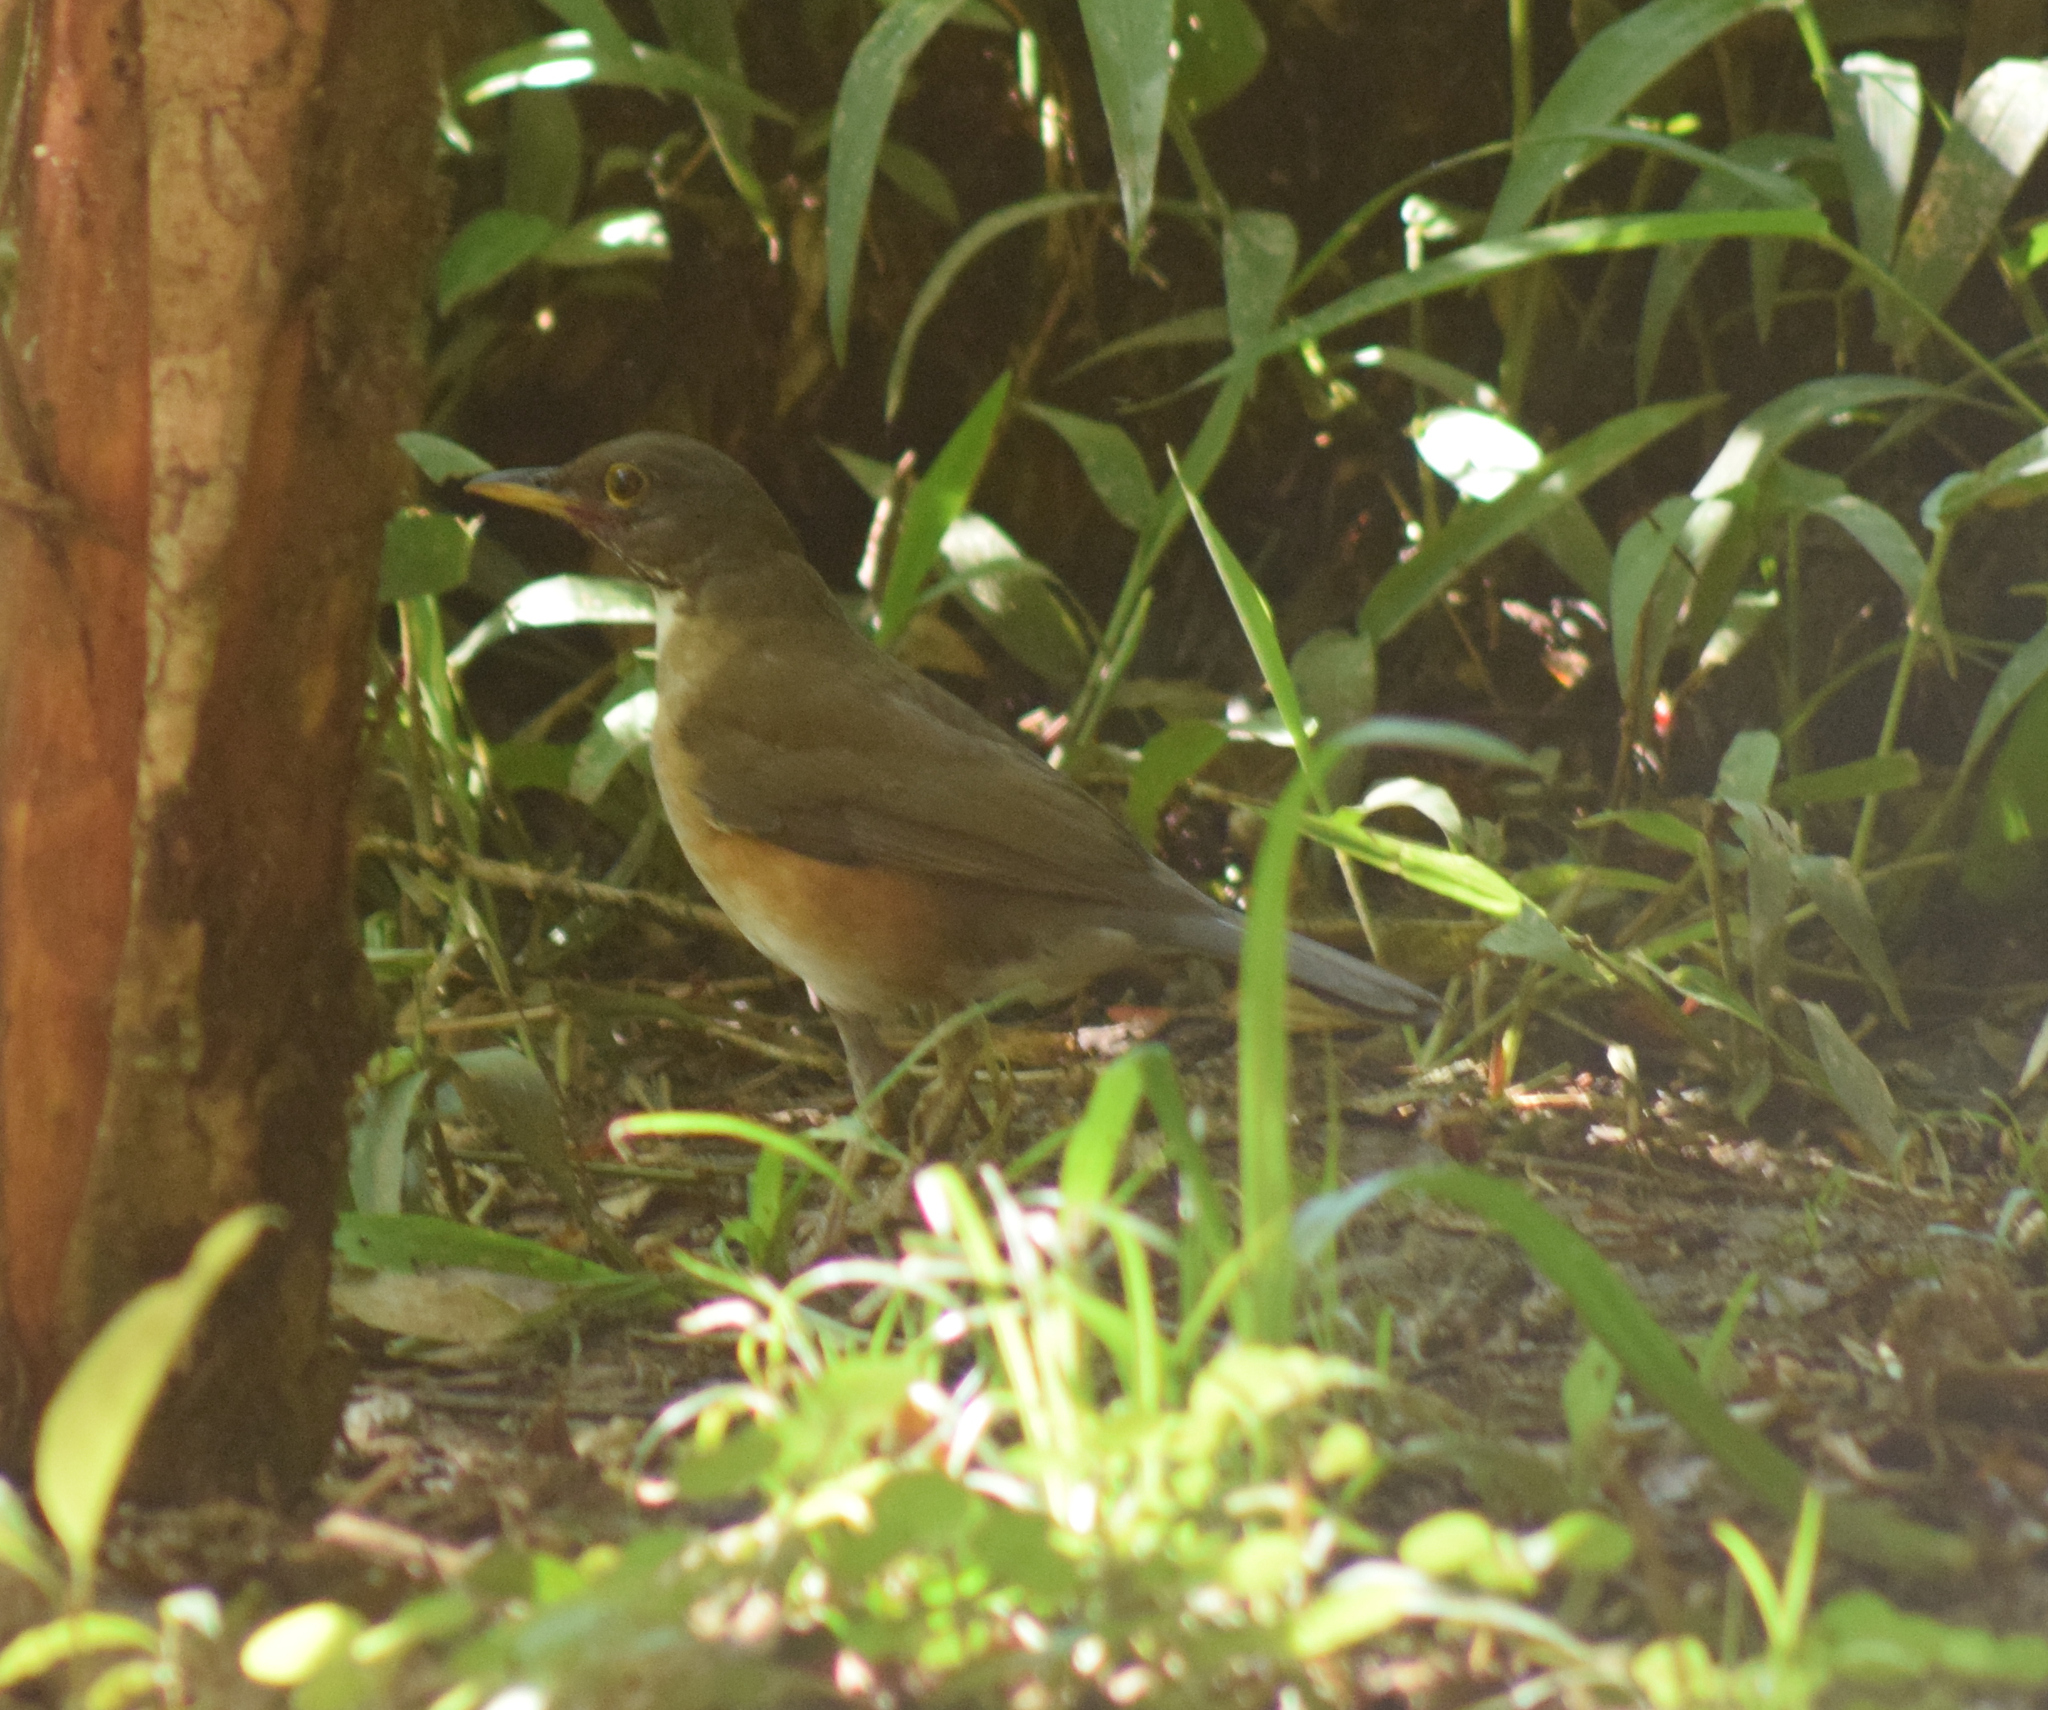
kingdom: Animalia
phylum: Chordata
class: Aves
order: Passeriformes
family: Turdidae
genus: Turdus
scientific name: Turdus albicollis
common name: White-necked thrush
